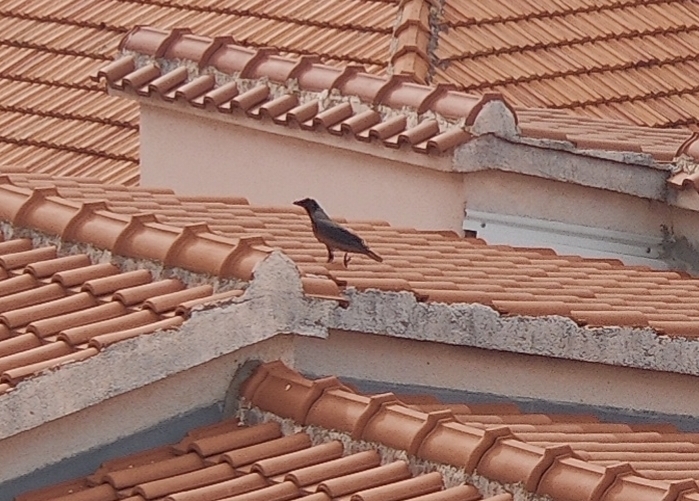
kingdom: Animalia
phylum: Chordata
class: Aves
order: Passeriformes
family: Corvidae
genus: Corvus
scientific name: Corvus cornix
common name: Hooded crow
